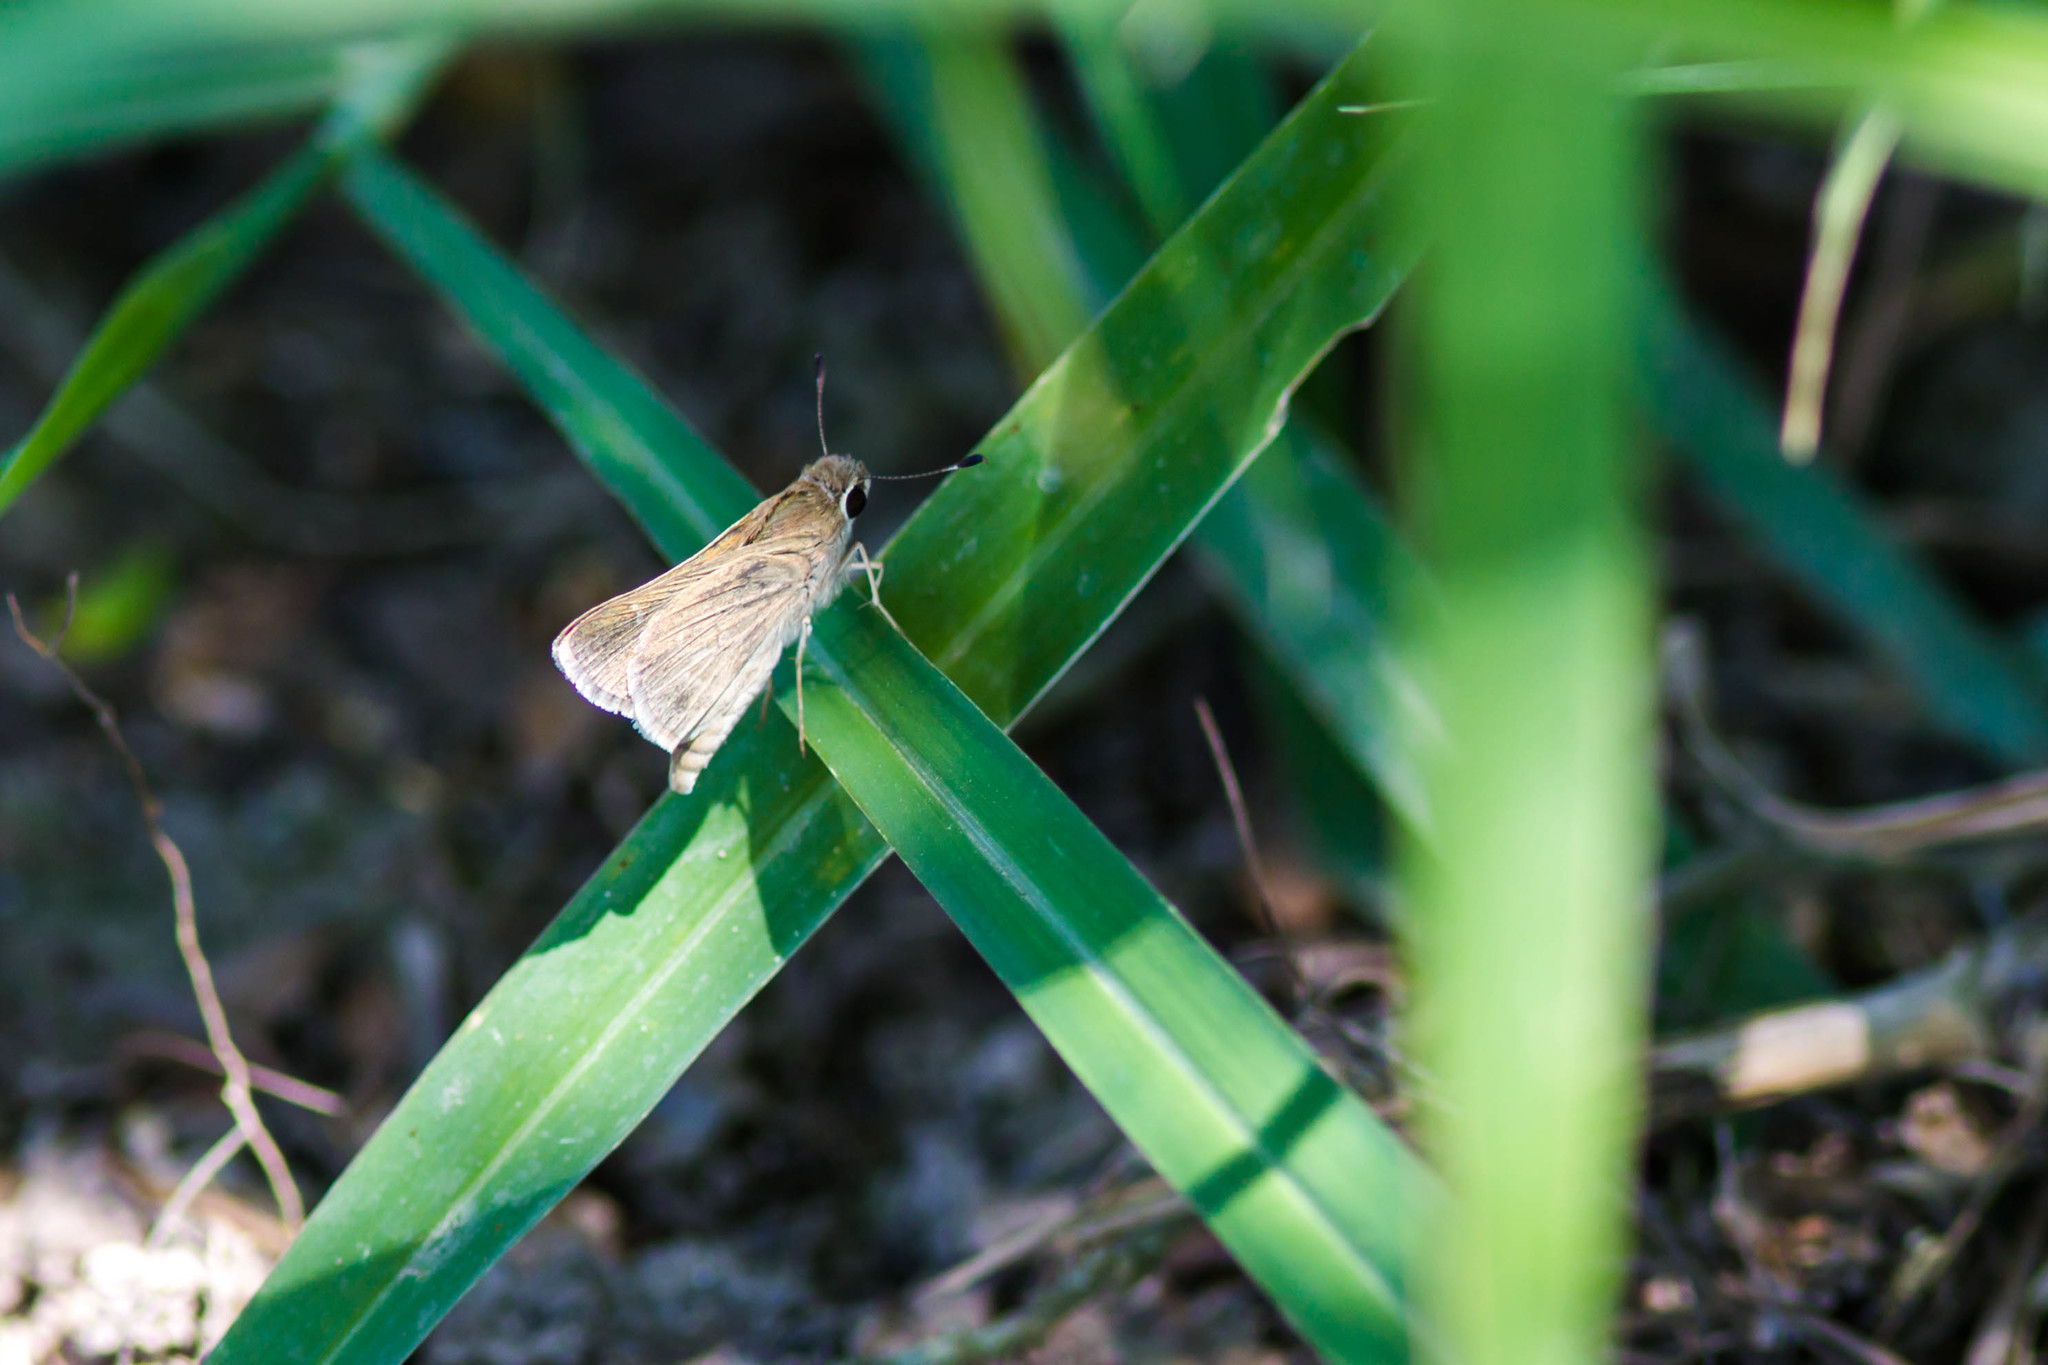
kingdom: Animalia
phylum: Arthropoda
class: Insecta
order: Lepidoptera
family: Hesperiidae
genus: Lerodea
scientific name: Lerodea eufala
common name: Eufala skipper
